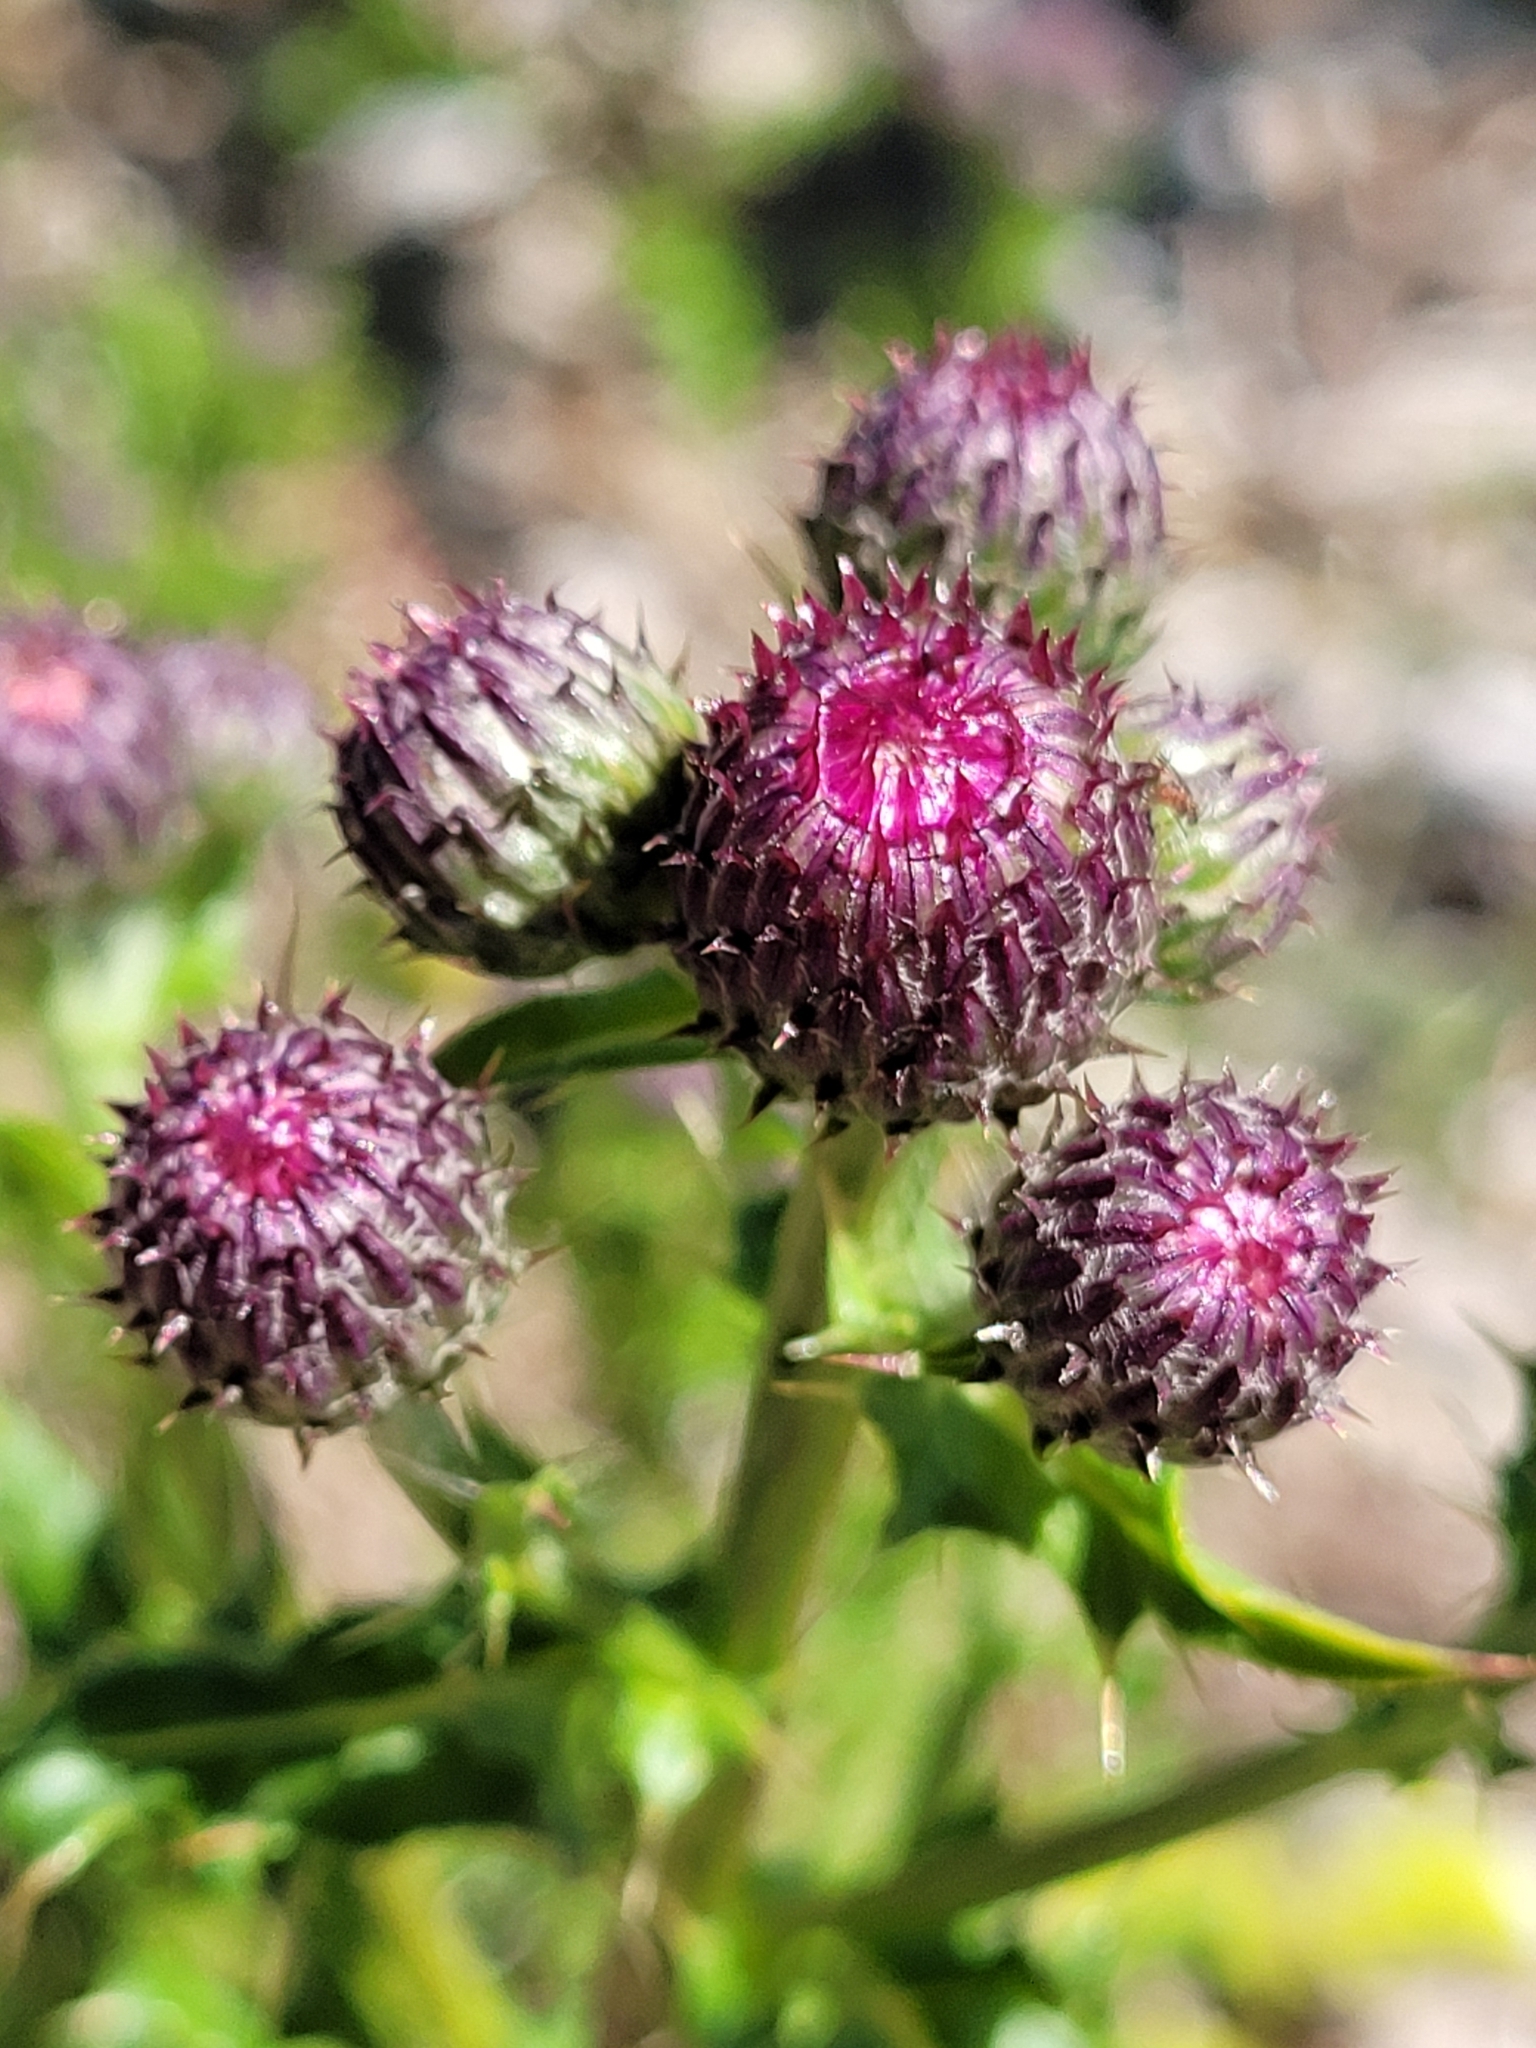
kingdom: Plantae
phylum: Tracheophyta
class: Magnoliopsida
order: Asterales
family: Asteraceae
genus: Cirsium
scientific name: Cirsium arvense
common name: Creeping thistle
